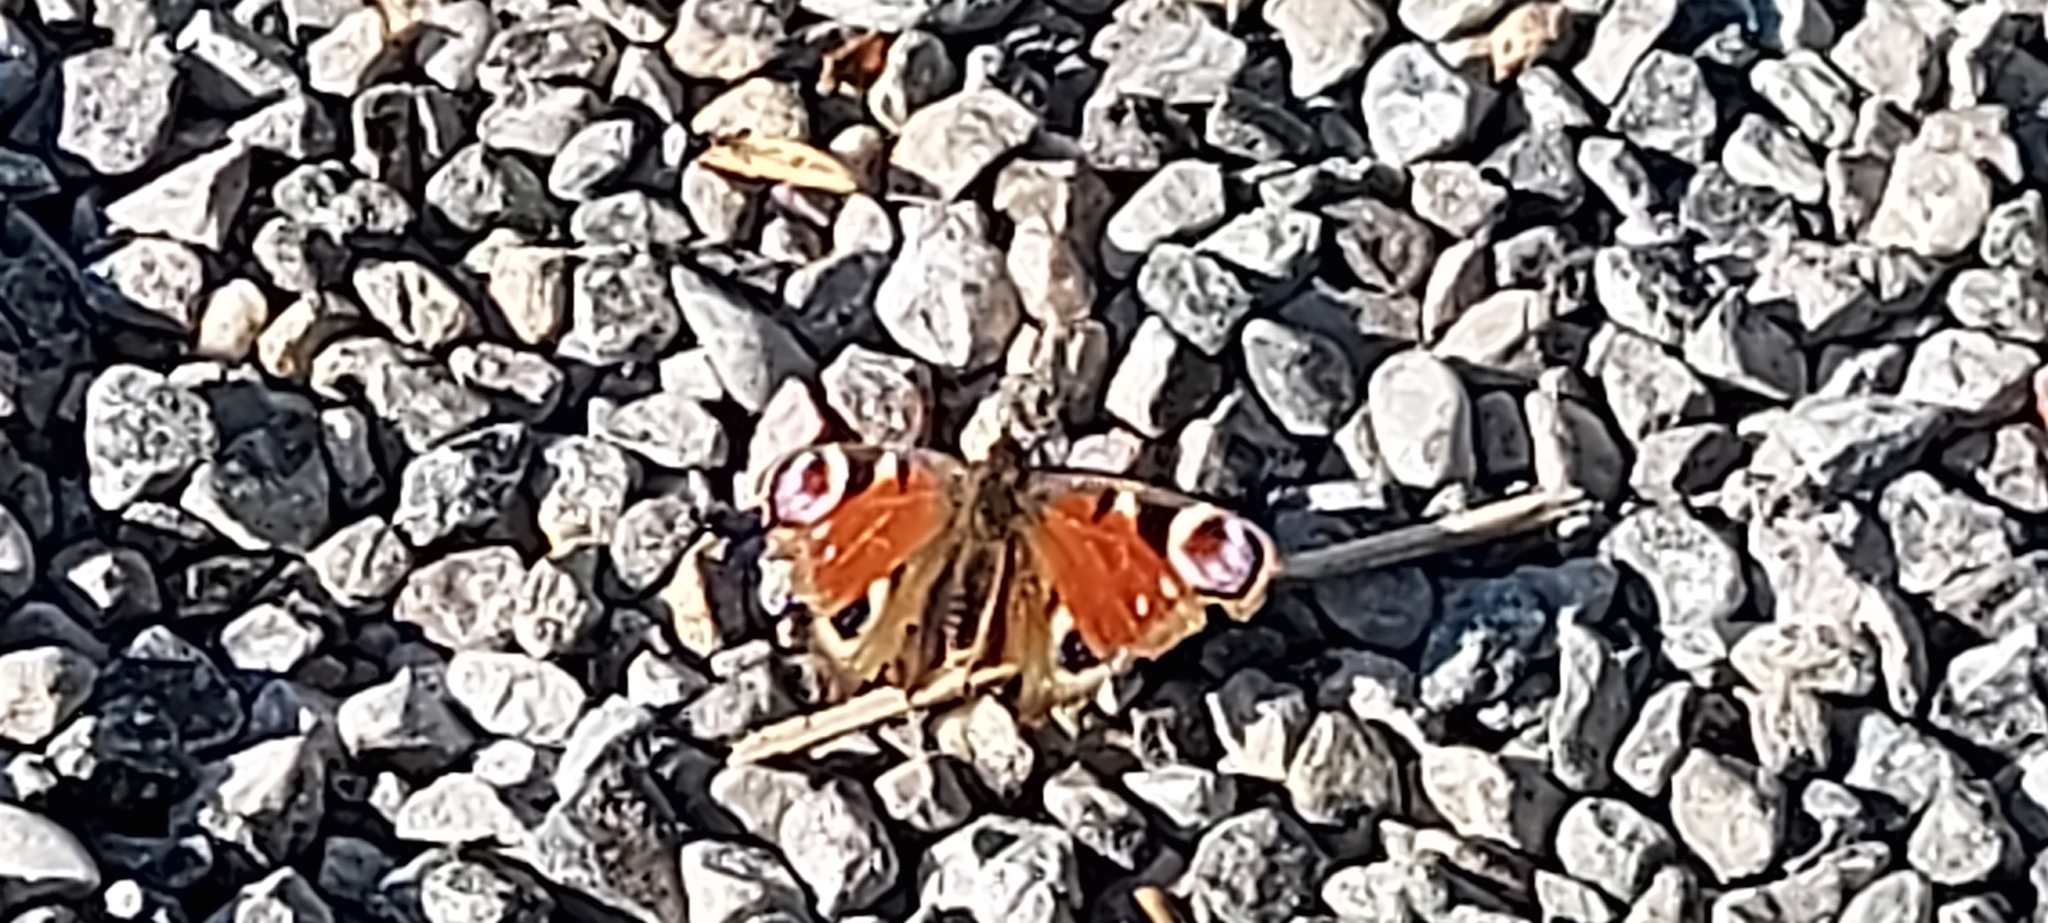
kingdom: Animalia
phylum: Arthropoda
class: Insecta
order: Lepidoptera
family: Nymphalidae
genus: Aglais
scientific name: Aglais io
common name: Peacock
